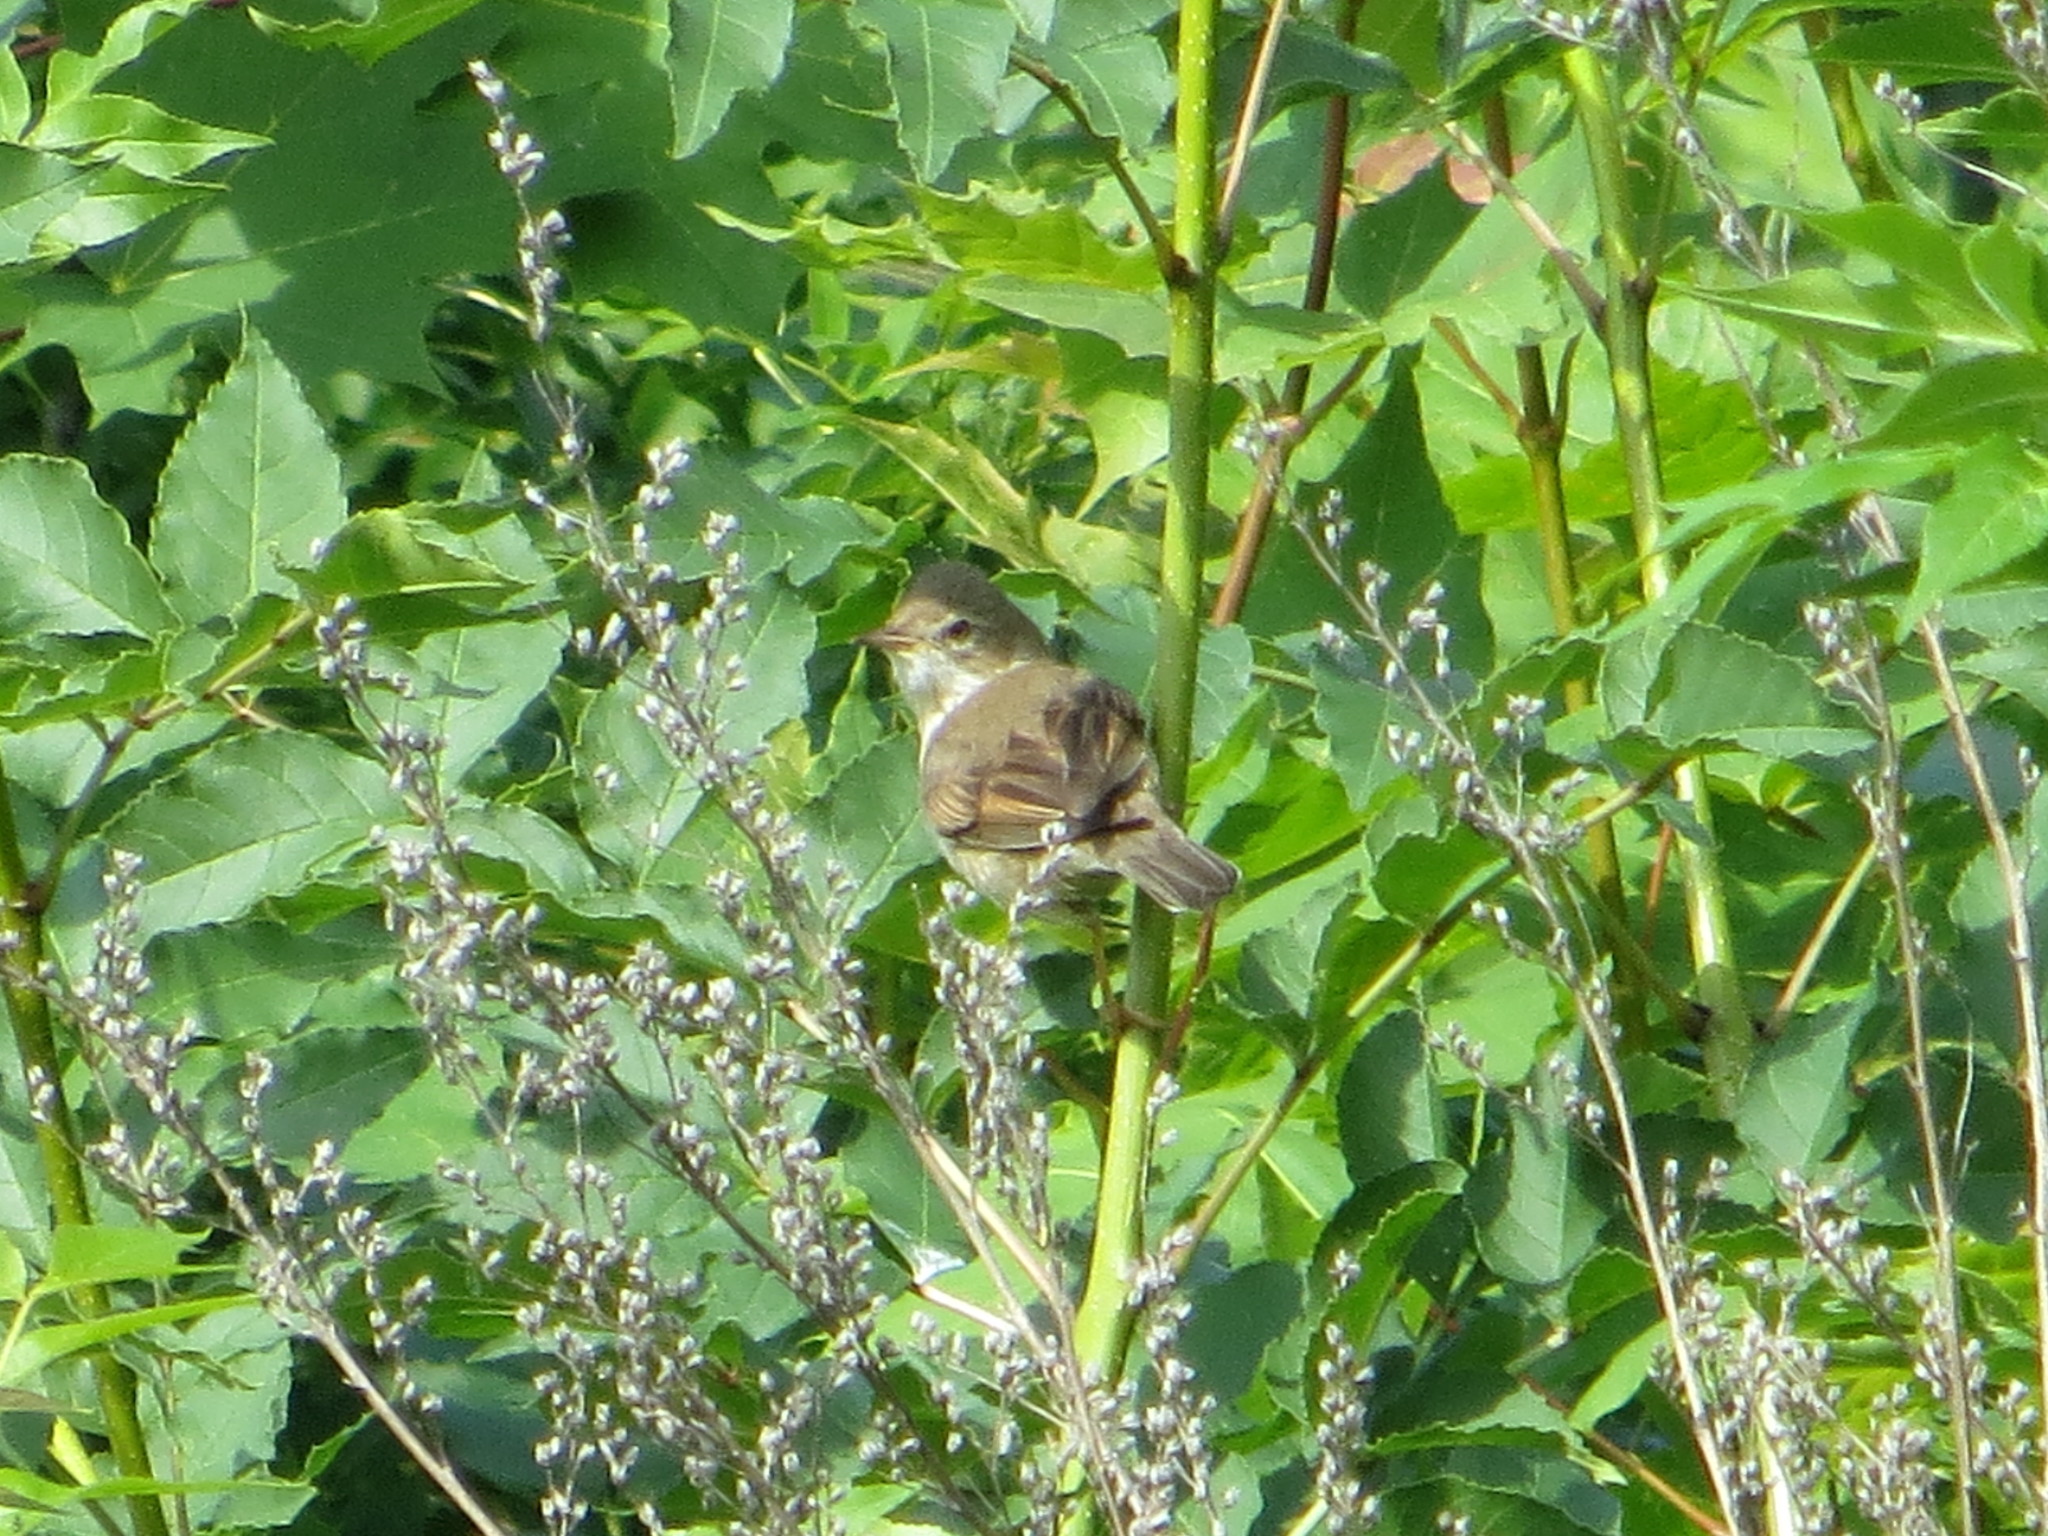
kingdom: Animalia
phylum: Chordata
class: Aves
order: Passeriformes
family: Sylviidae
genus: Sylvia
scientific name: Sylvia communis
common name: Common whitethroat
